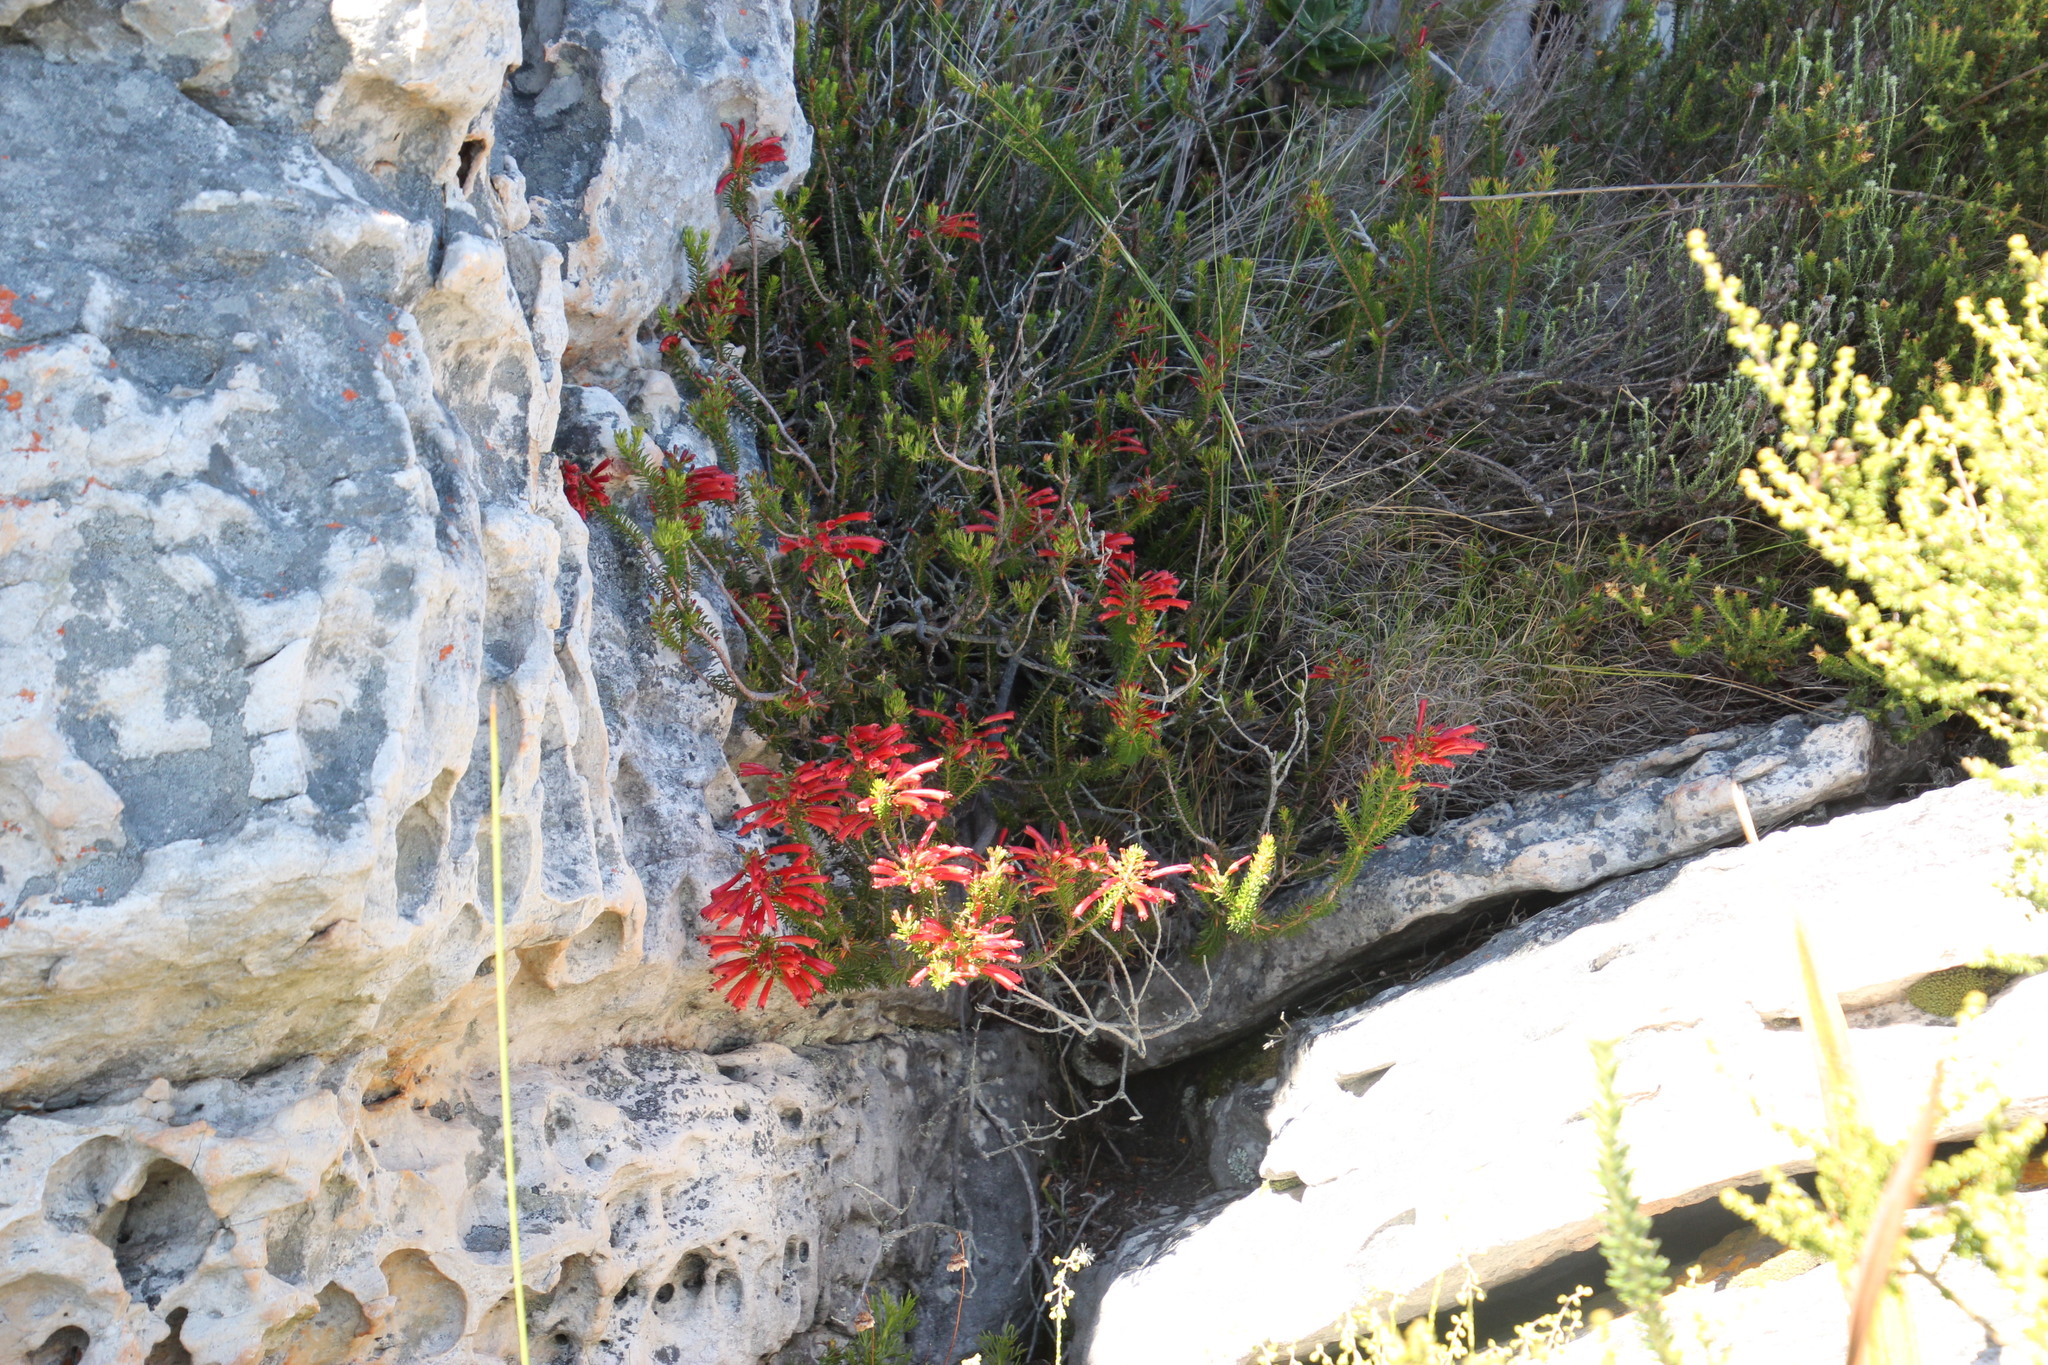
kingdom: Plantae
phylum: Tracheophyta
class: Magnoliopsida
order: Ericales
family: Ericaceae
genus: Erica
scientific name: Erica nevillei
